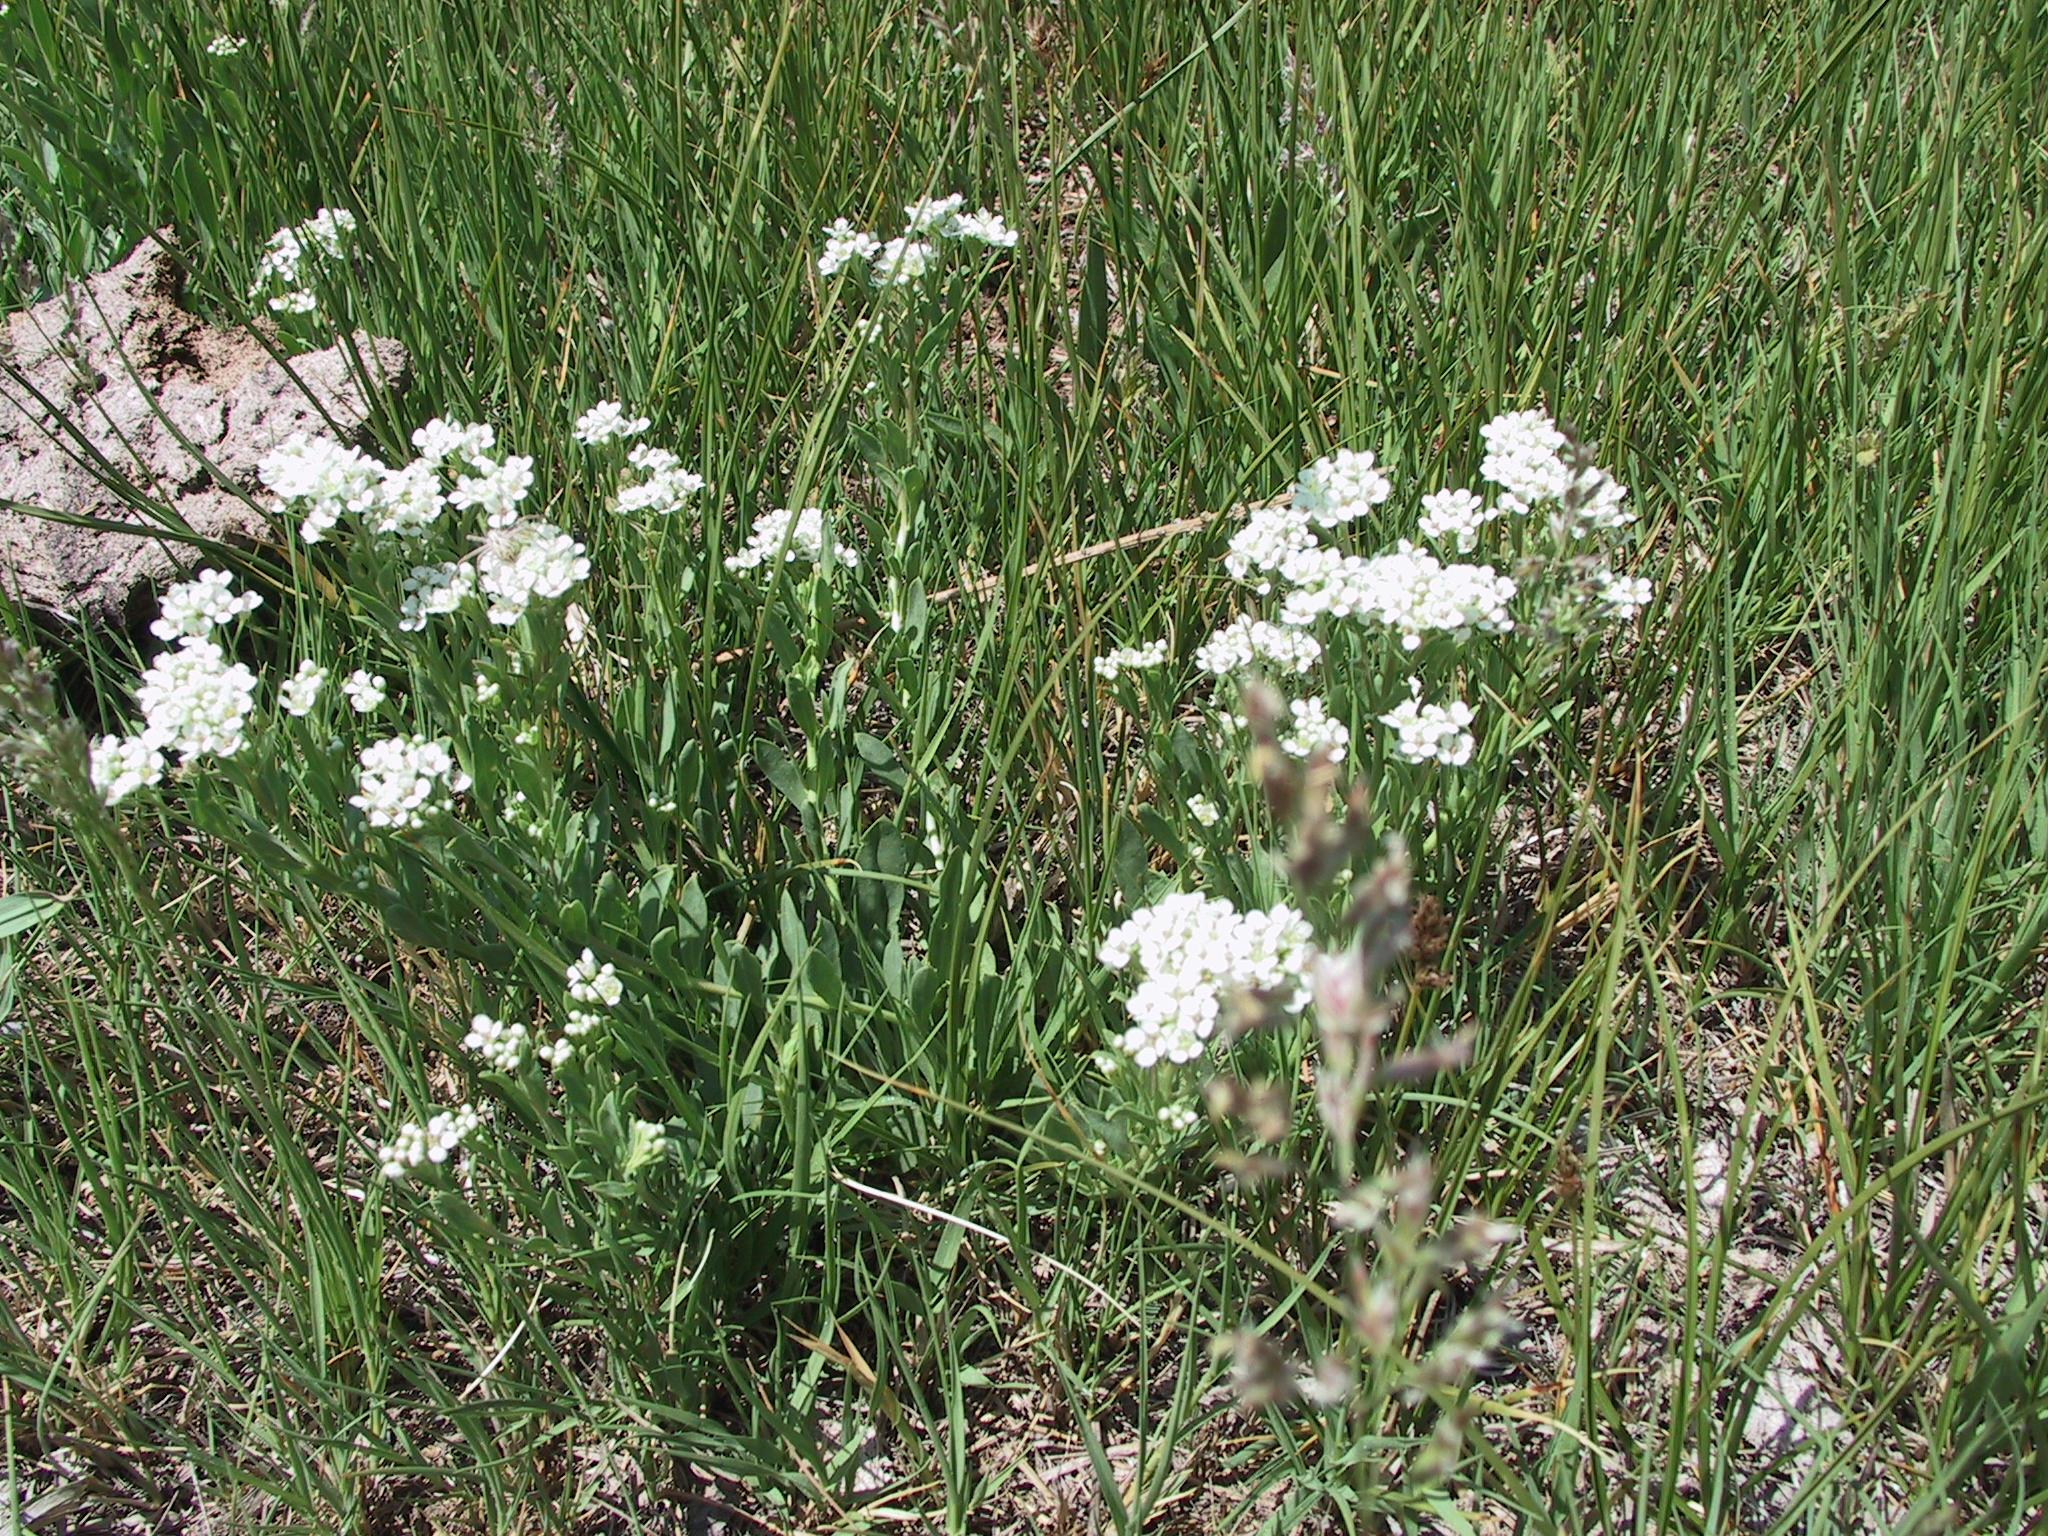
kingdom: Plantae
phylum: Tracheophyta
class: Magnoliopsida
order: Brassicales
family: Brassicaceae
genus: Lepidium
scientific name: Lepidium integrifolium
